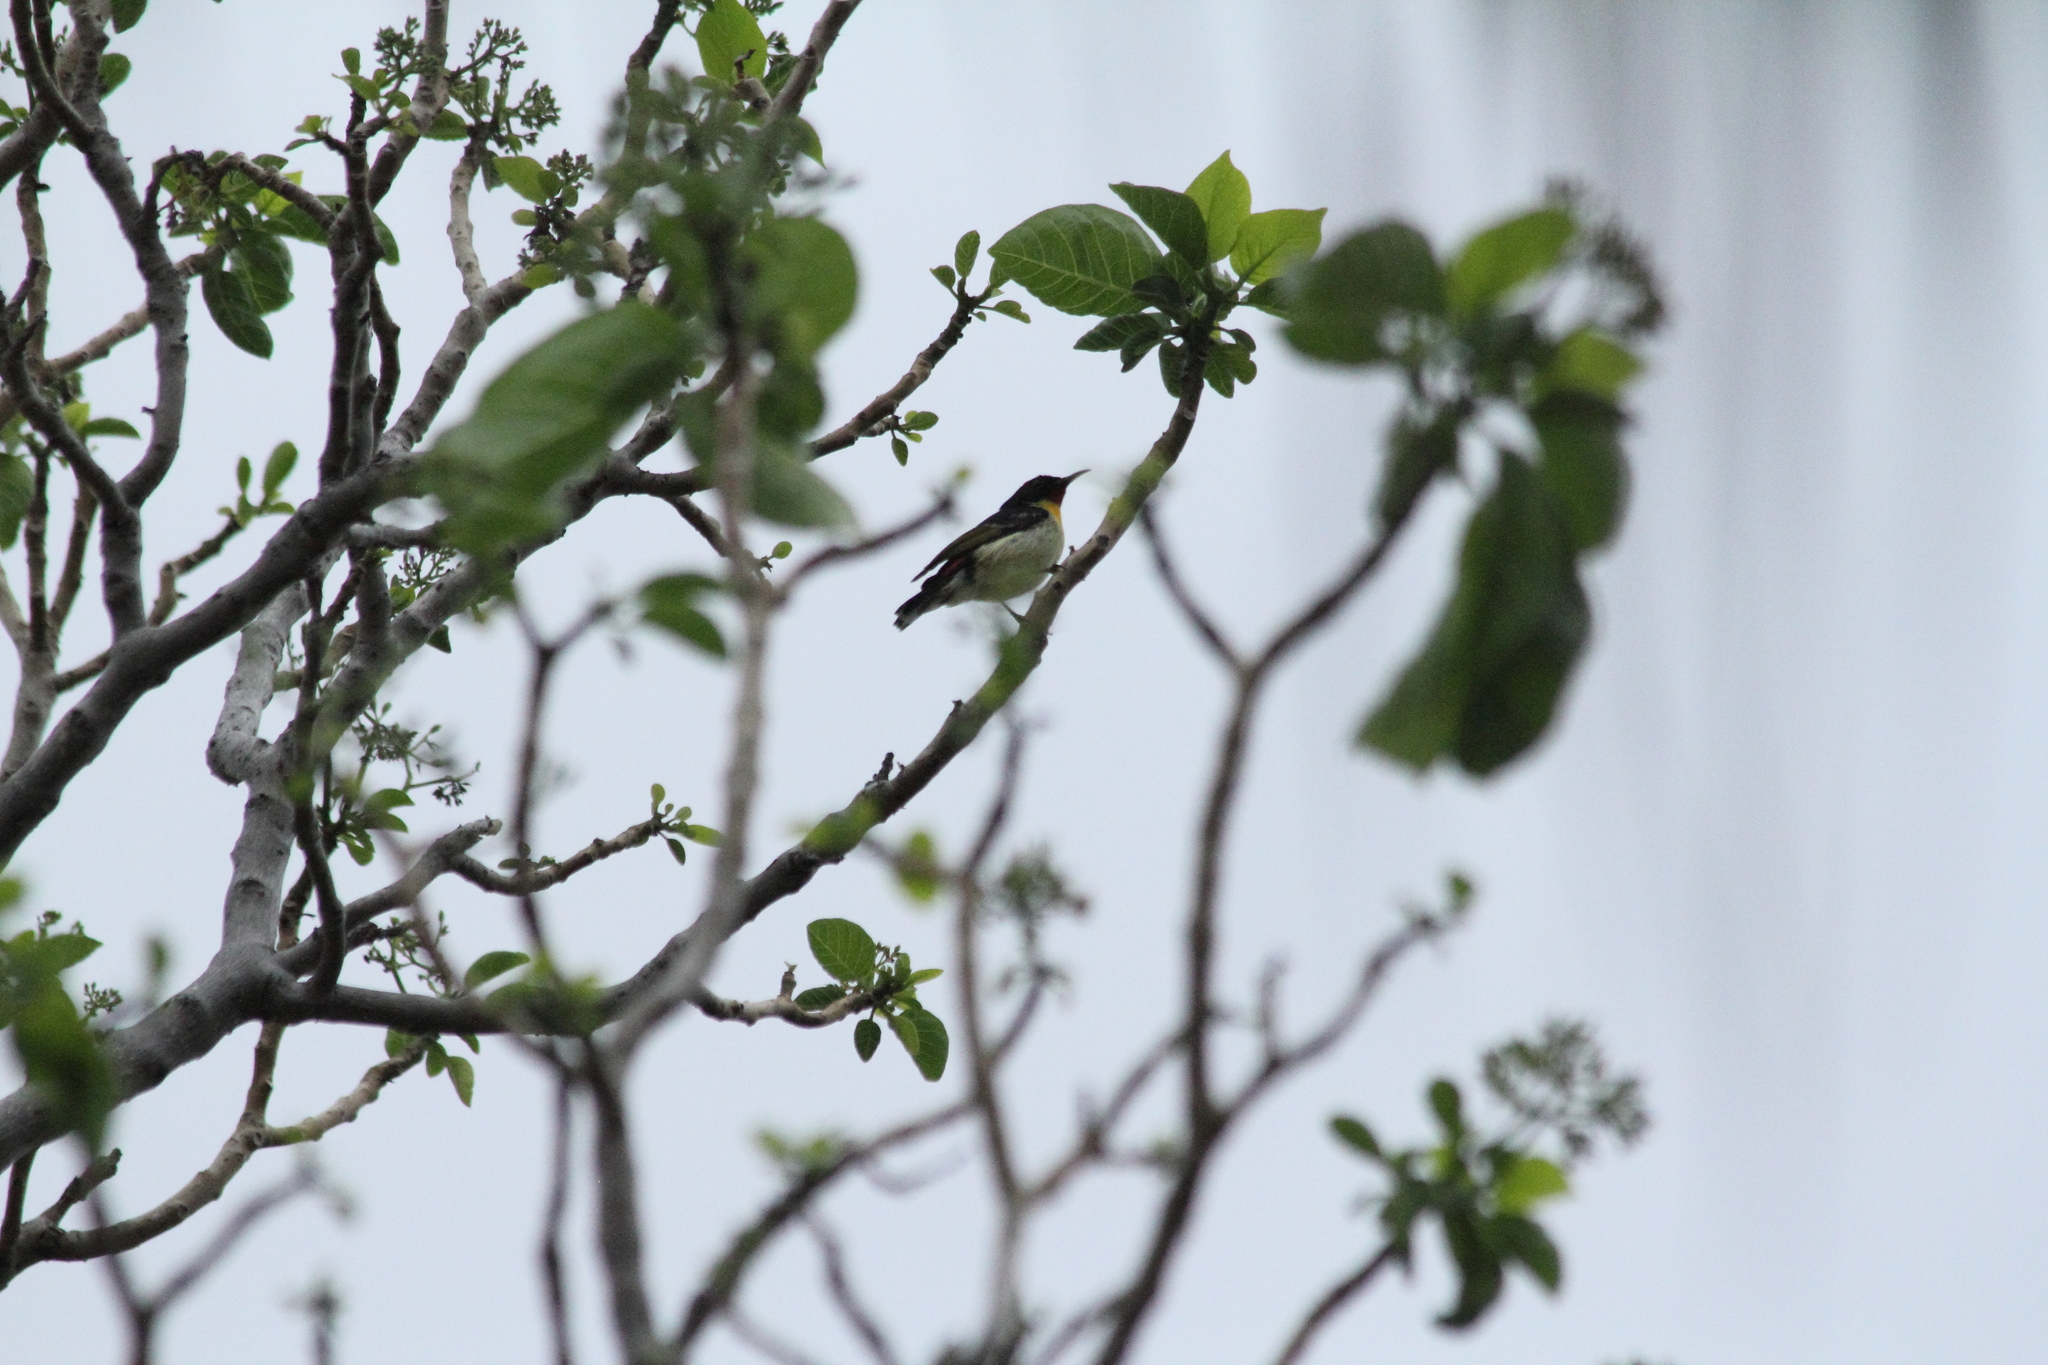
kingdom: Animalia
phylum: Chordata
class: Aves
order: Passeriformes
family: Meliphagidae
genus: Myzomela
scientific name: Myzomela jugularis
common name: Sulphur-breasted myzomela
